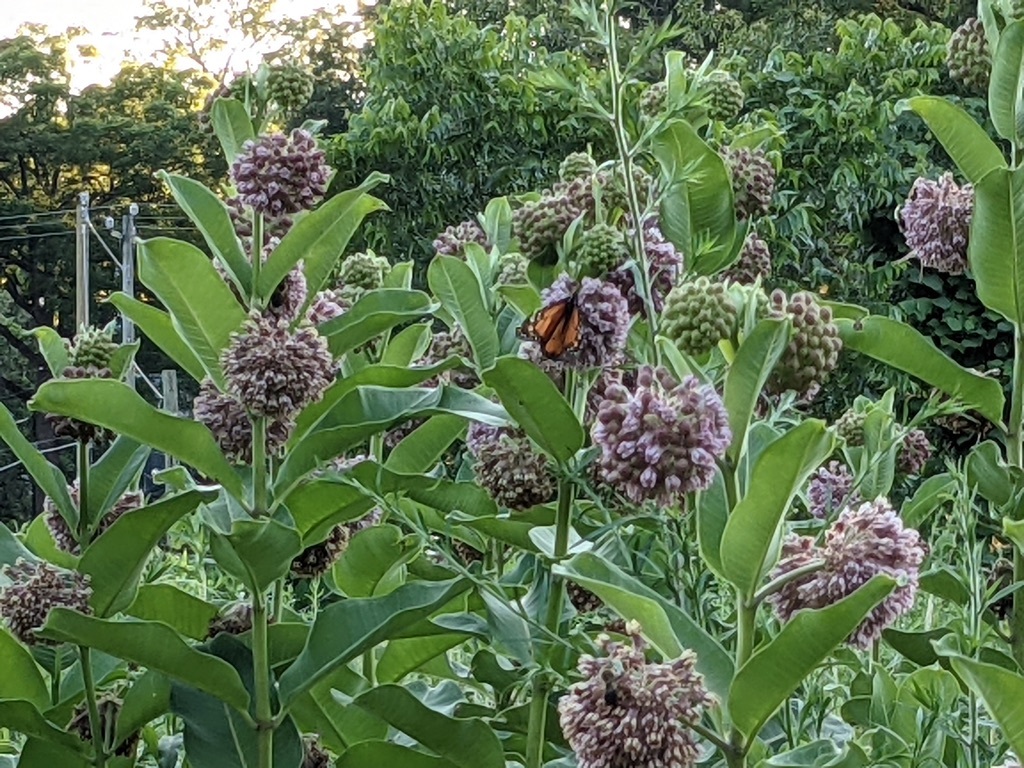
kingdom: Animalia
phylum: Arthropoda
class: Insecta
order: Lepidoptera
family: Nymphalidae
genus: Danaus
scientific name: Danaus plexippus
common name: Monarch
